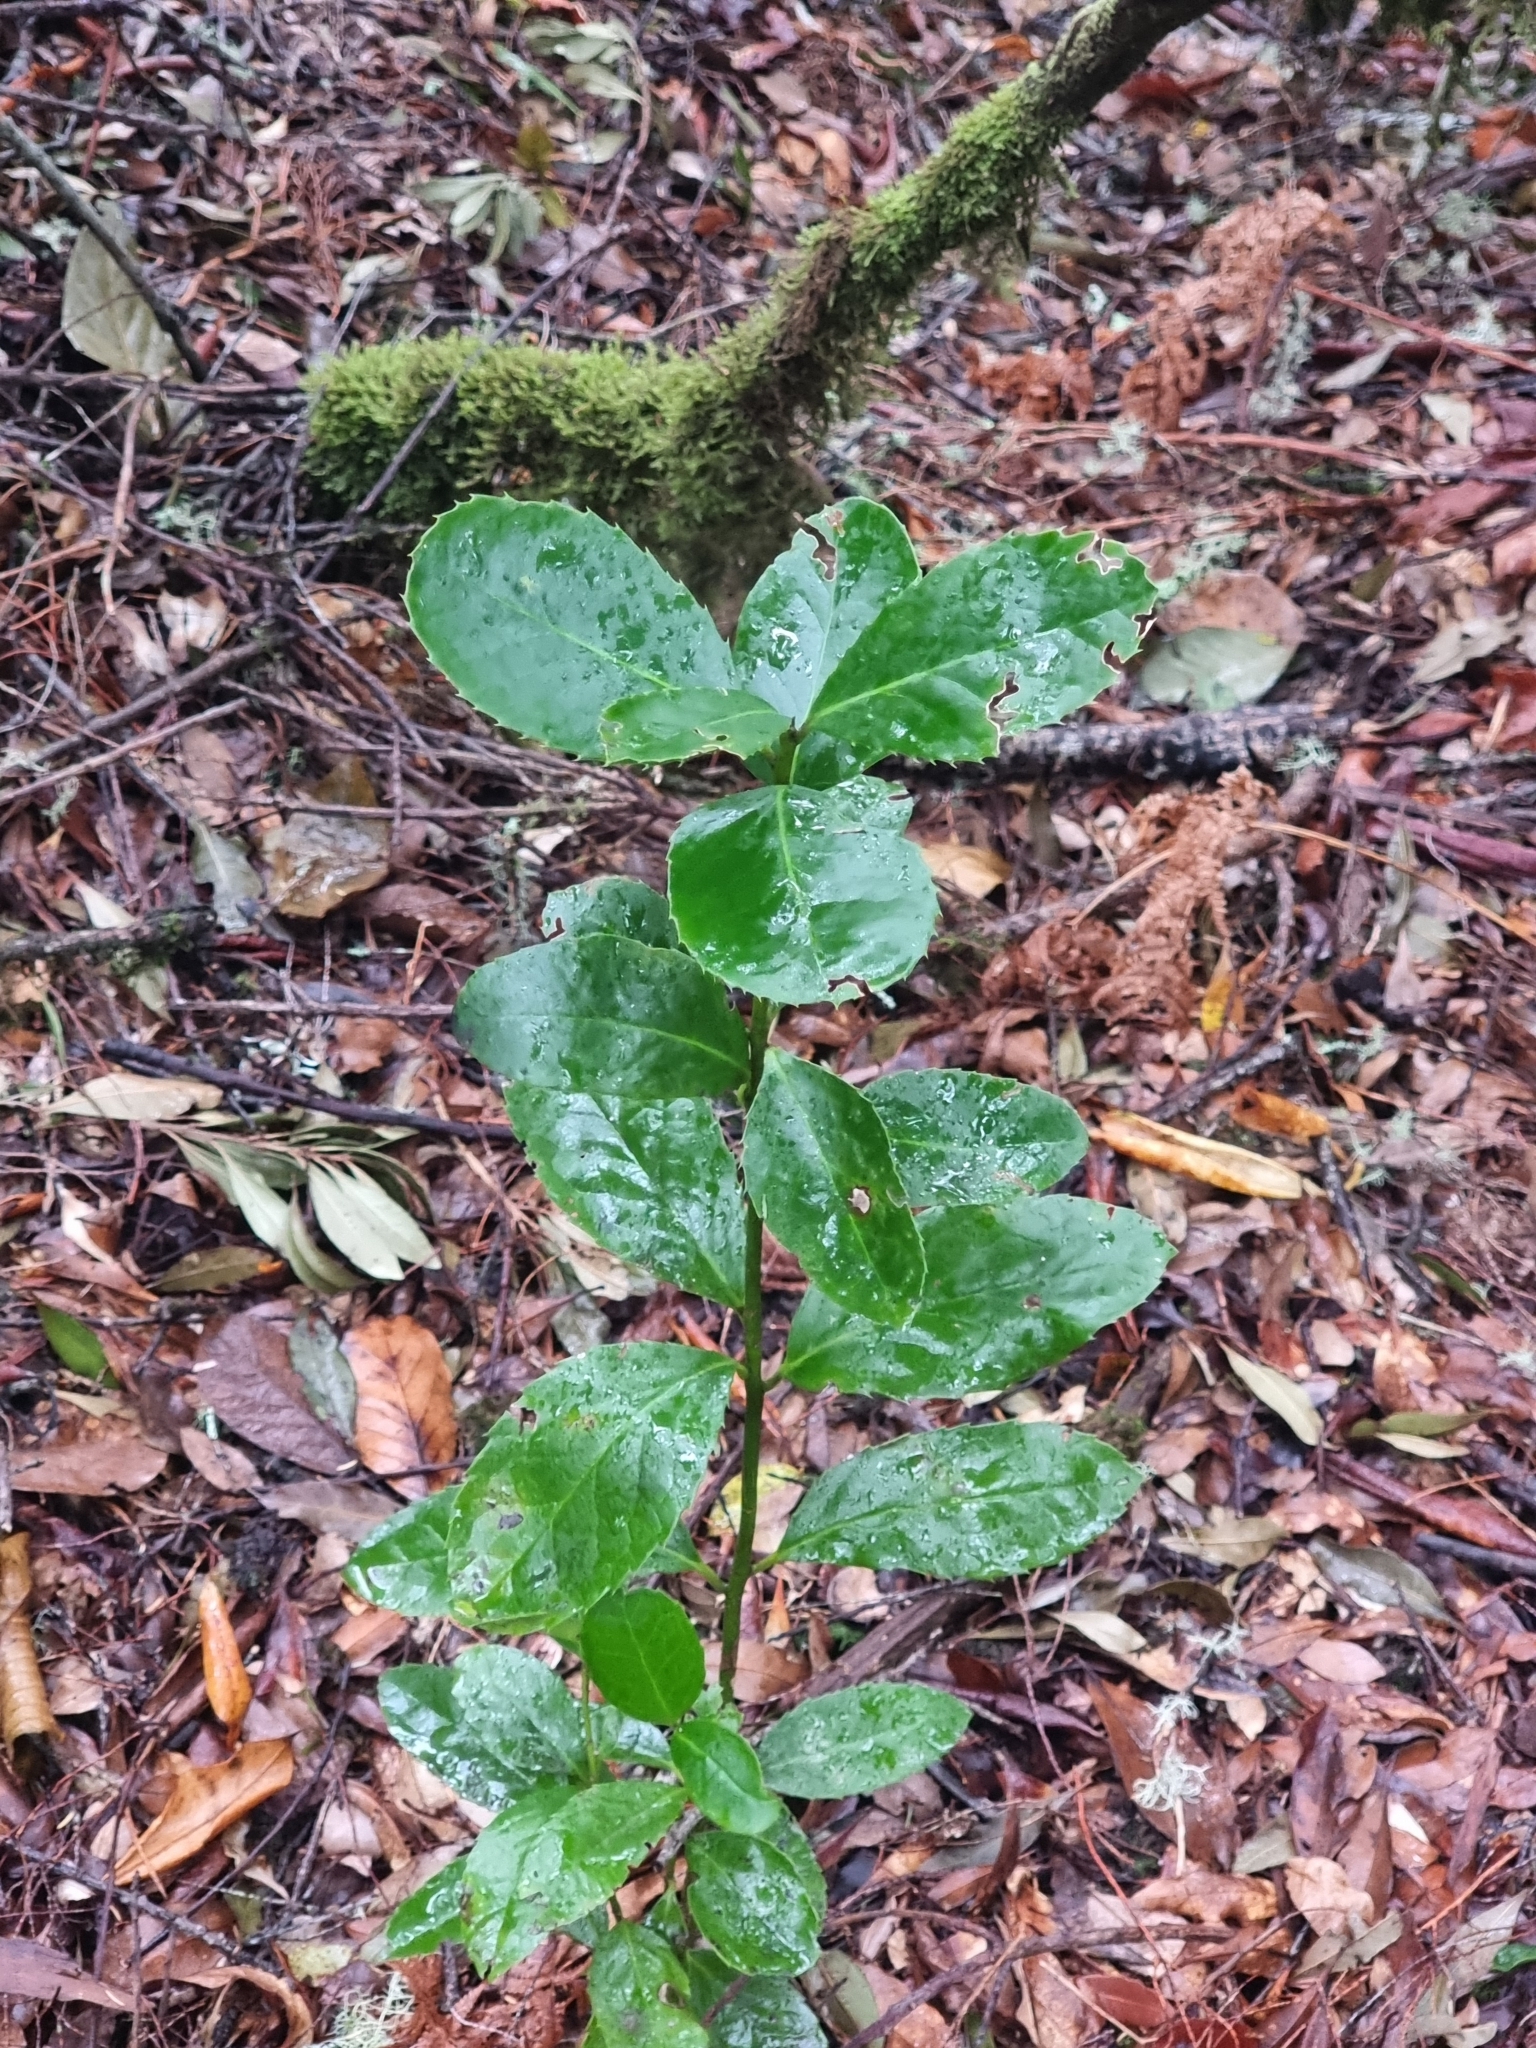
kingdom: Plantae
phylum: Tracheophyta
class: Magnoliopsida
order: Aquifoliales
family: Aquifoliaceae
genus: Ilex
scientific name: Ilex perado
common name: Madeira holly
